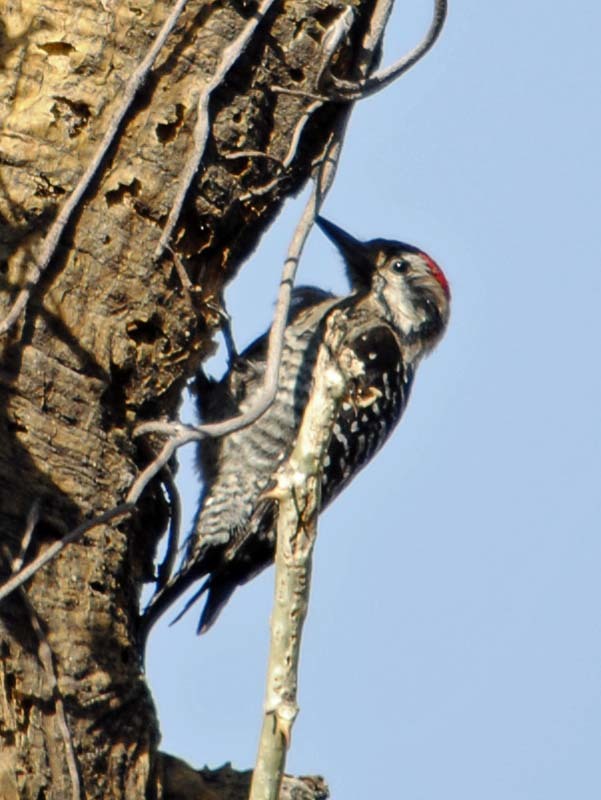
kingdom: Animalia
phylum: Chordata
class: Aves
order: Piciformes
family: Picidae
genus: Dryobates
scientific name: Dryobates scalaris
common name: Ladder-backed woodpecker
